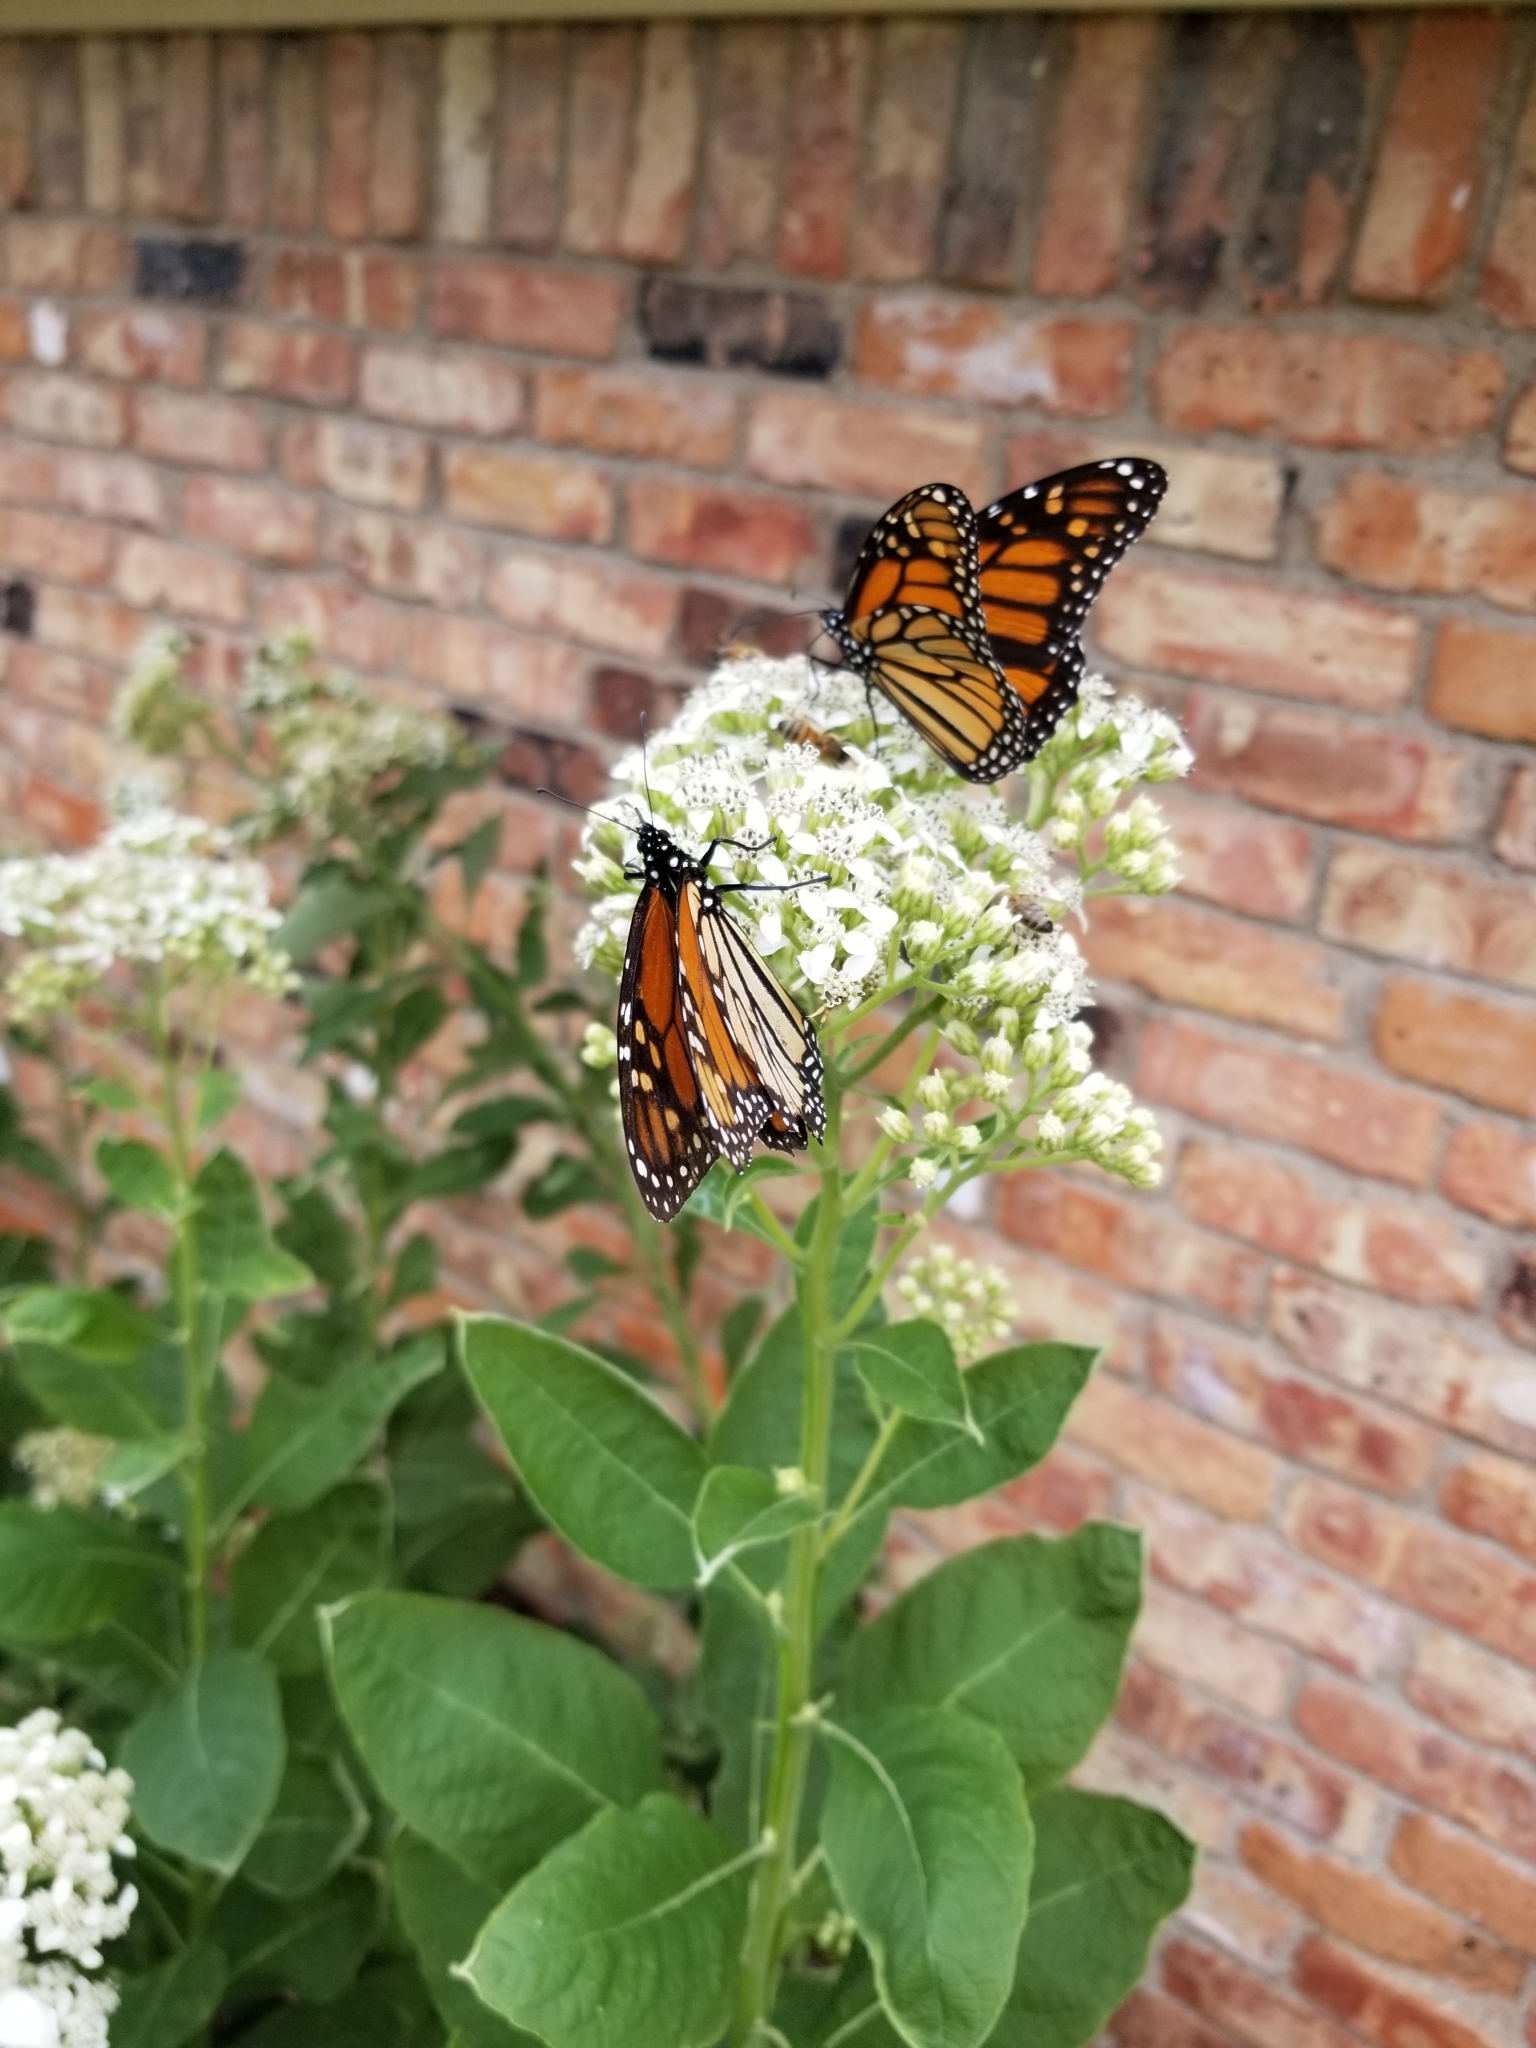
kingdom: Animalia
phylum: Arthropoda
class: Insecta
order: Lepidoptera
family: Nymphalidae
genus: Danaus
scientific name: Danaus plexippus
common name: Monarch
